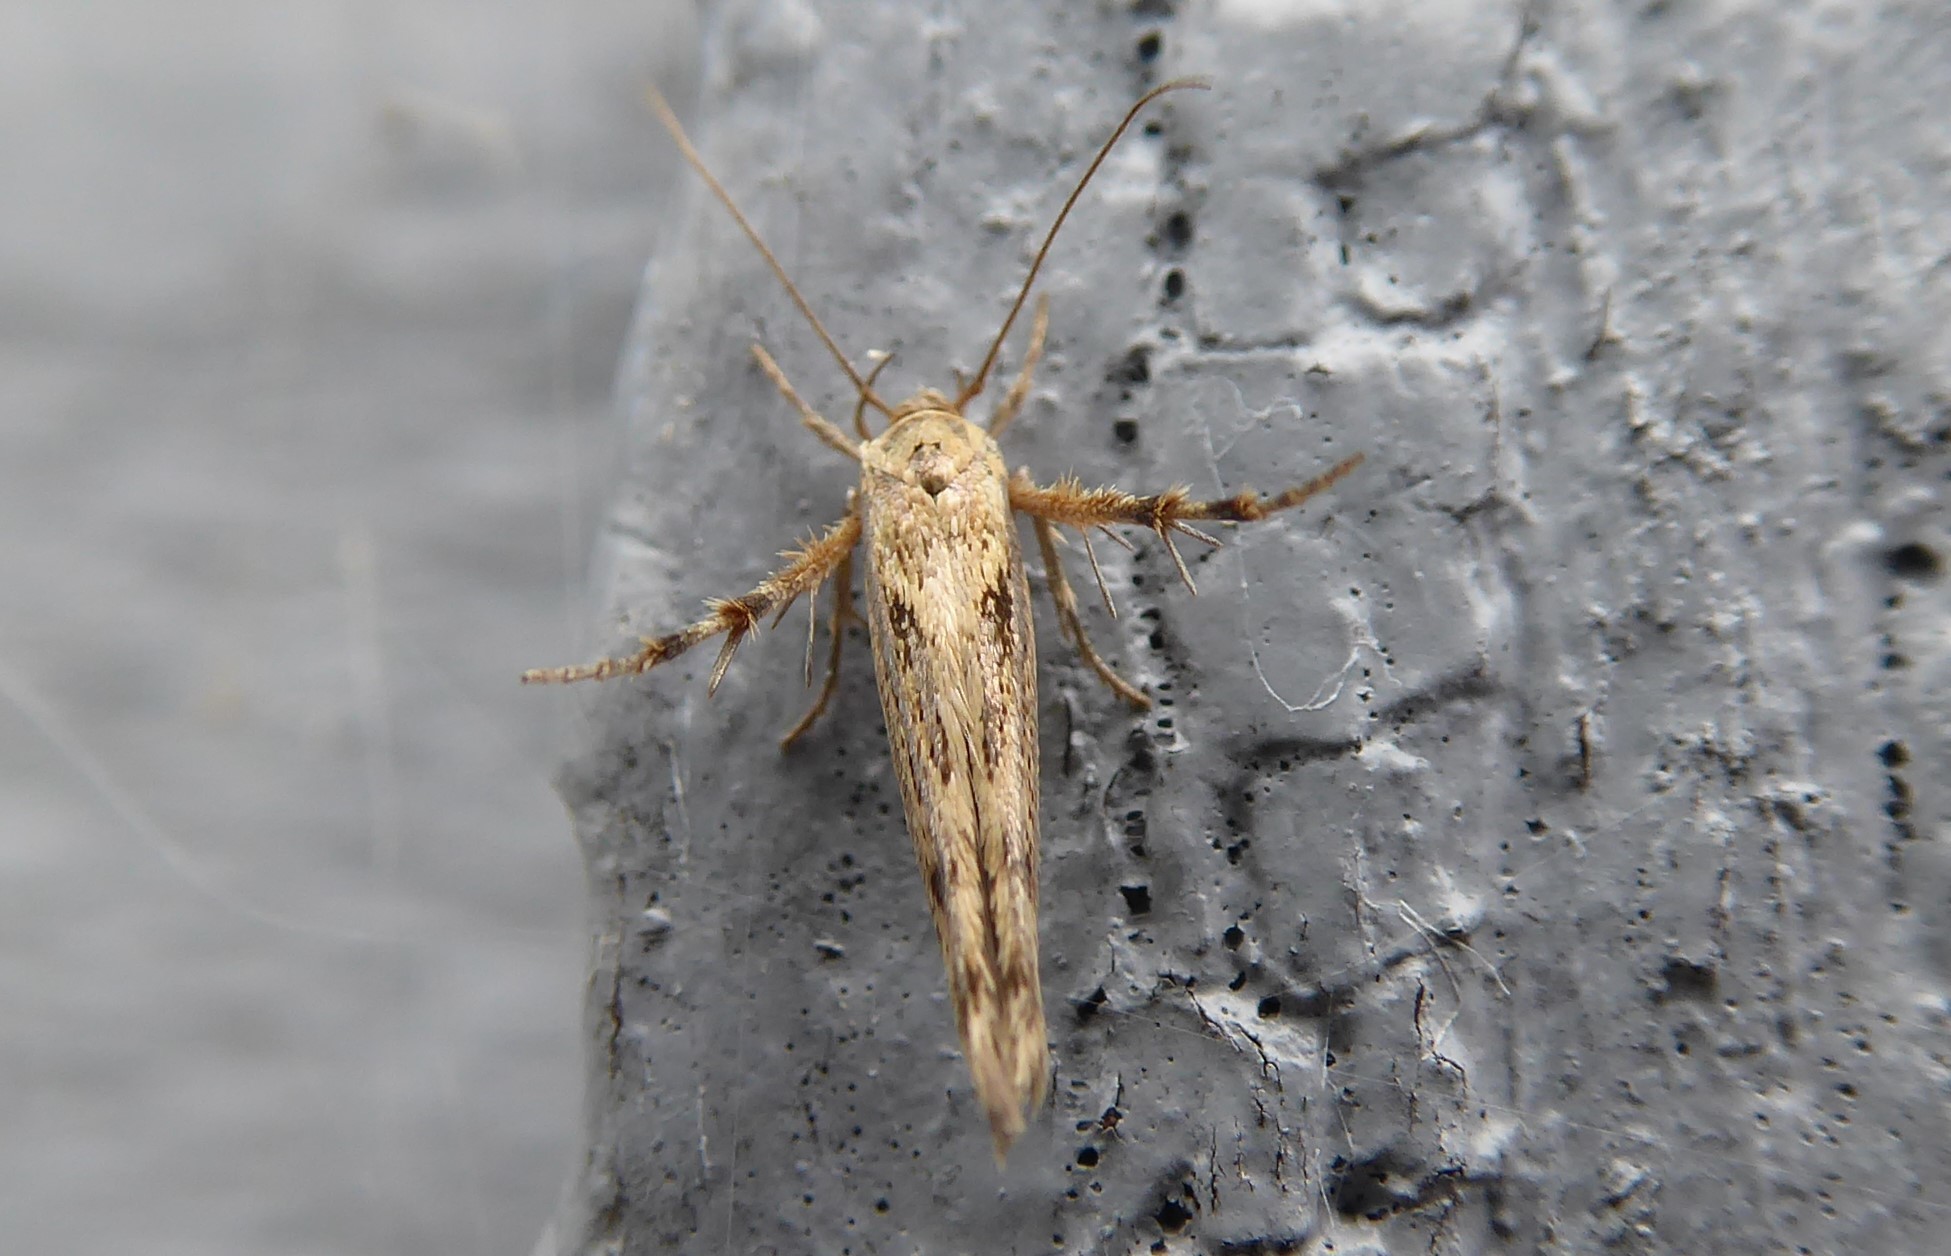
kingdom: Animalia
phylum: Arthropoda
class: Insecta
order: Lepidoptera
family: Stathmopodidae
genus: Stathmopoda
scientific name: Stathmopoda plumbiflua
